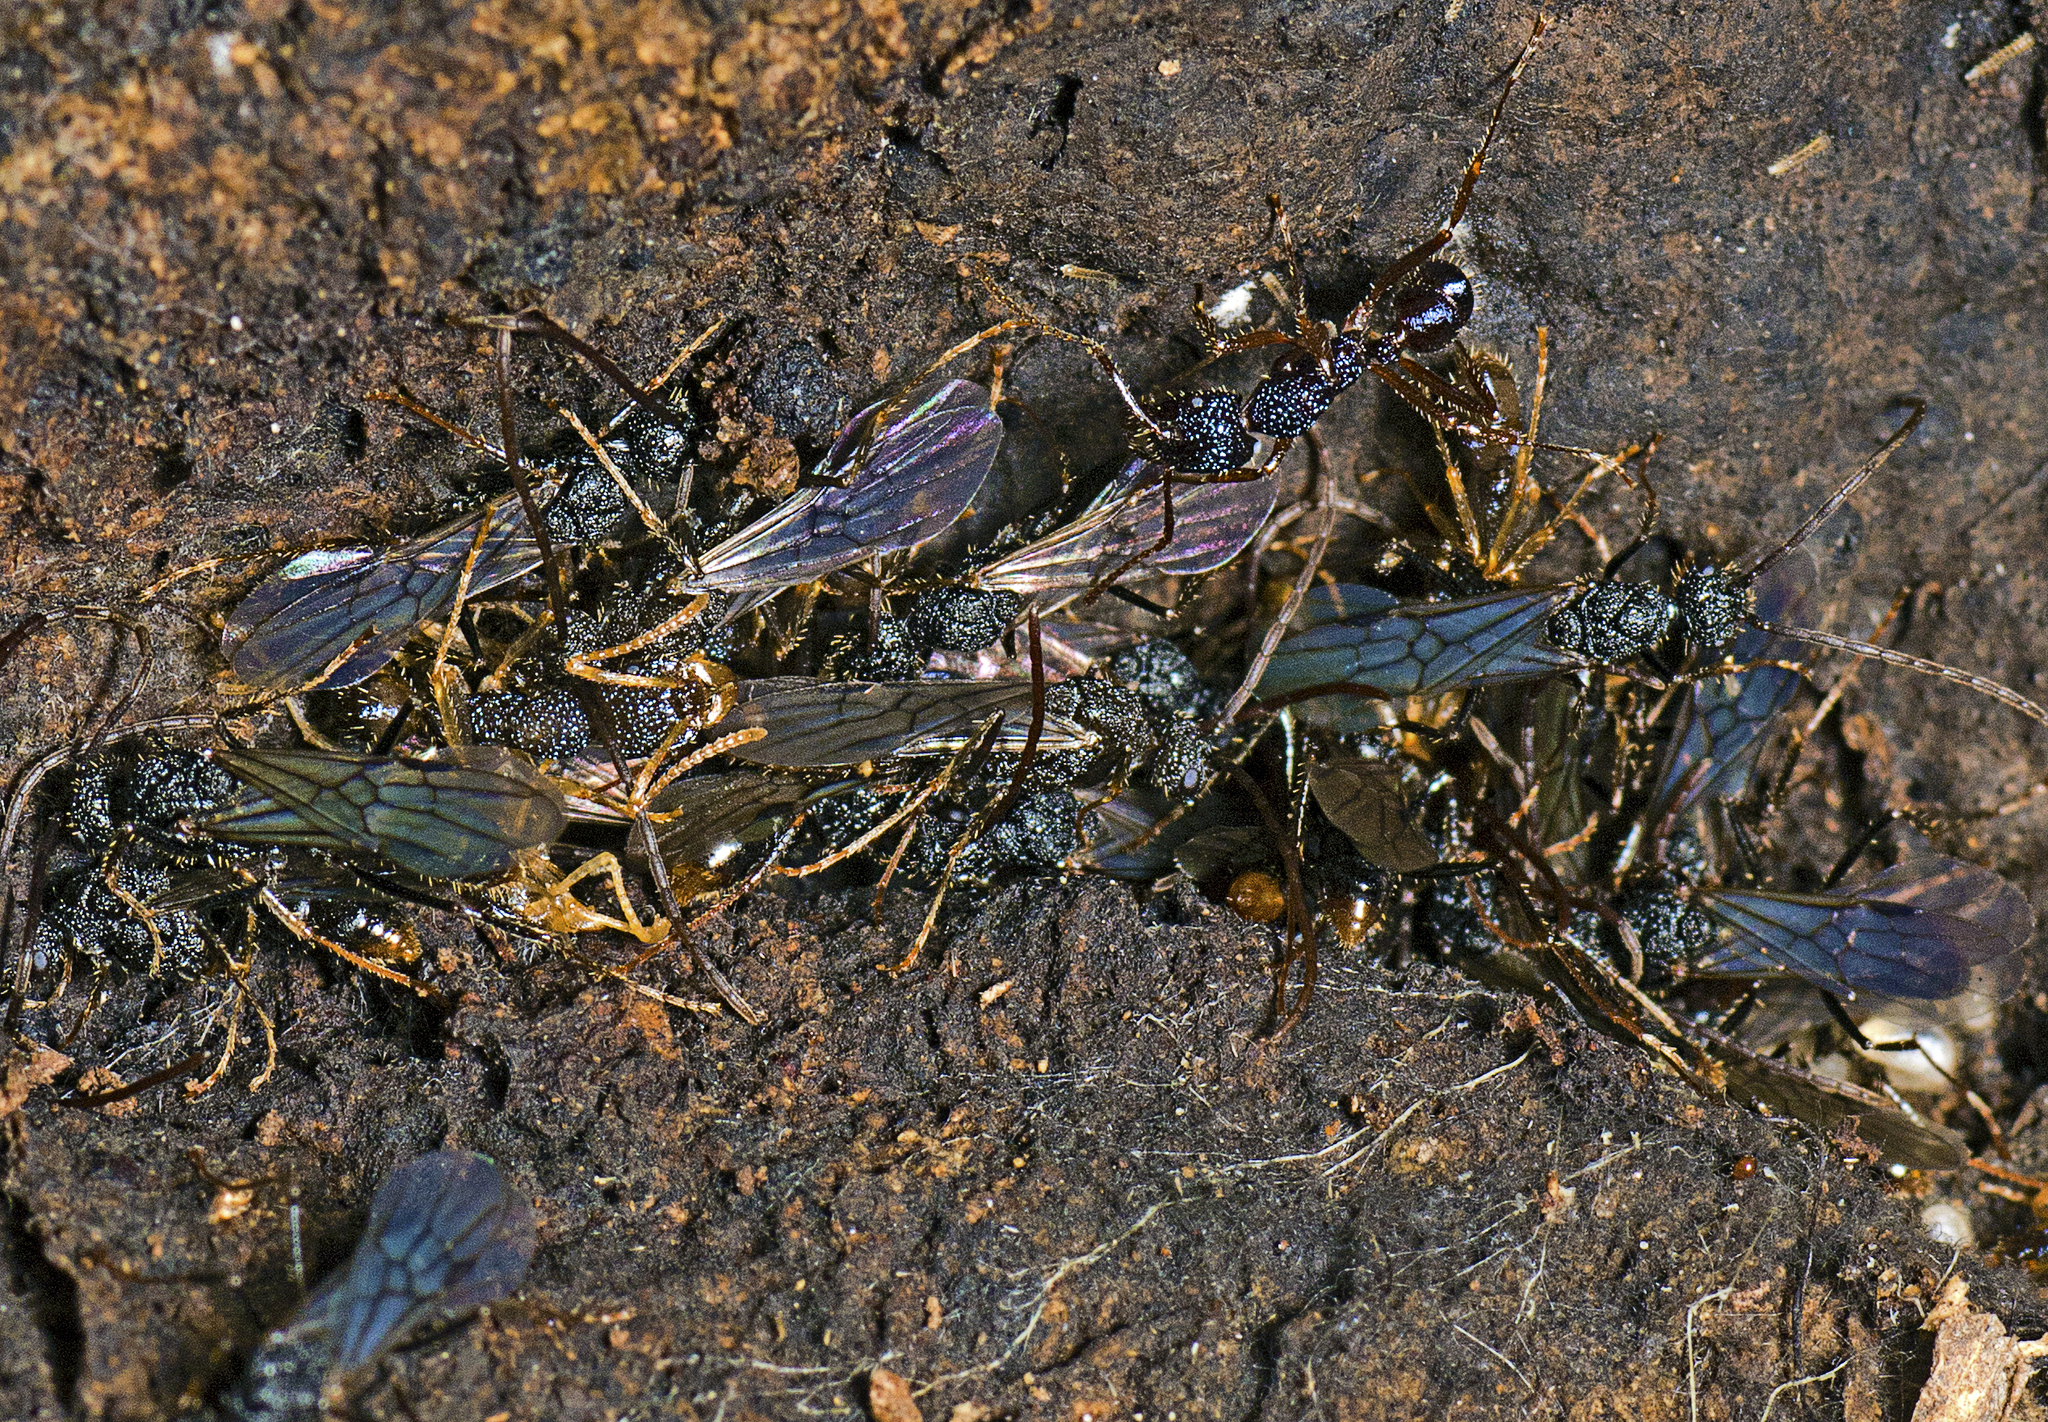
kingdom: Animalia
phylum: Arthropoda
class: Insecta
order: Hymenoptera
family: Formicidae
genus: Rhytidoponera
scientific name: Rhytidoponera chalybaea
